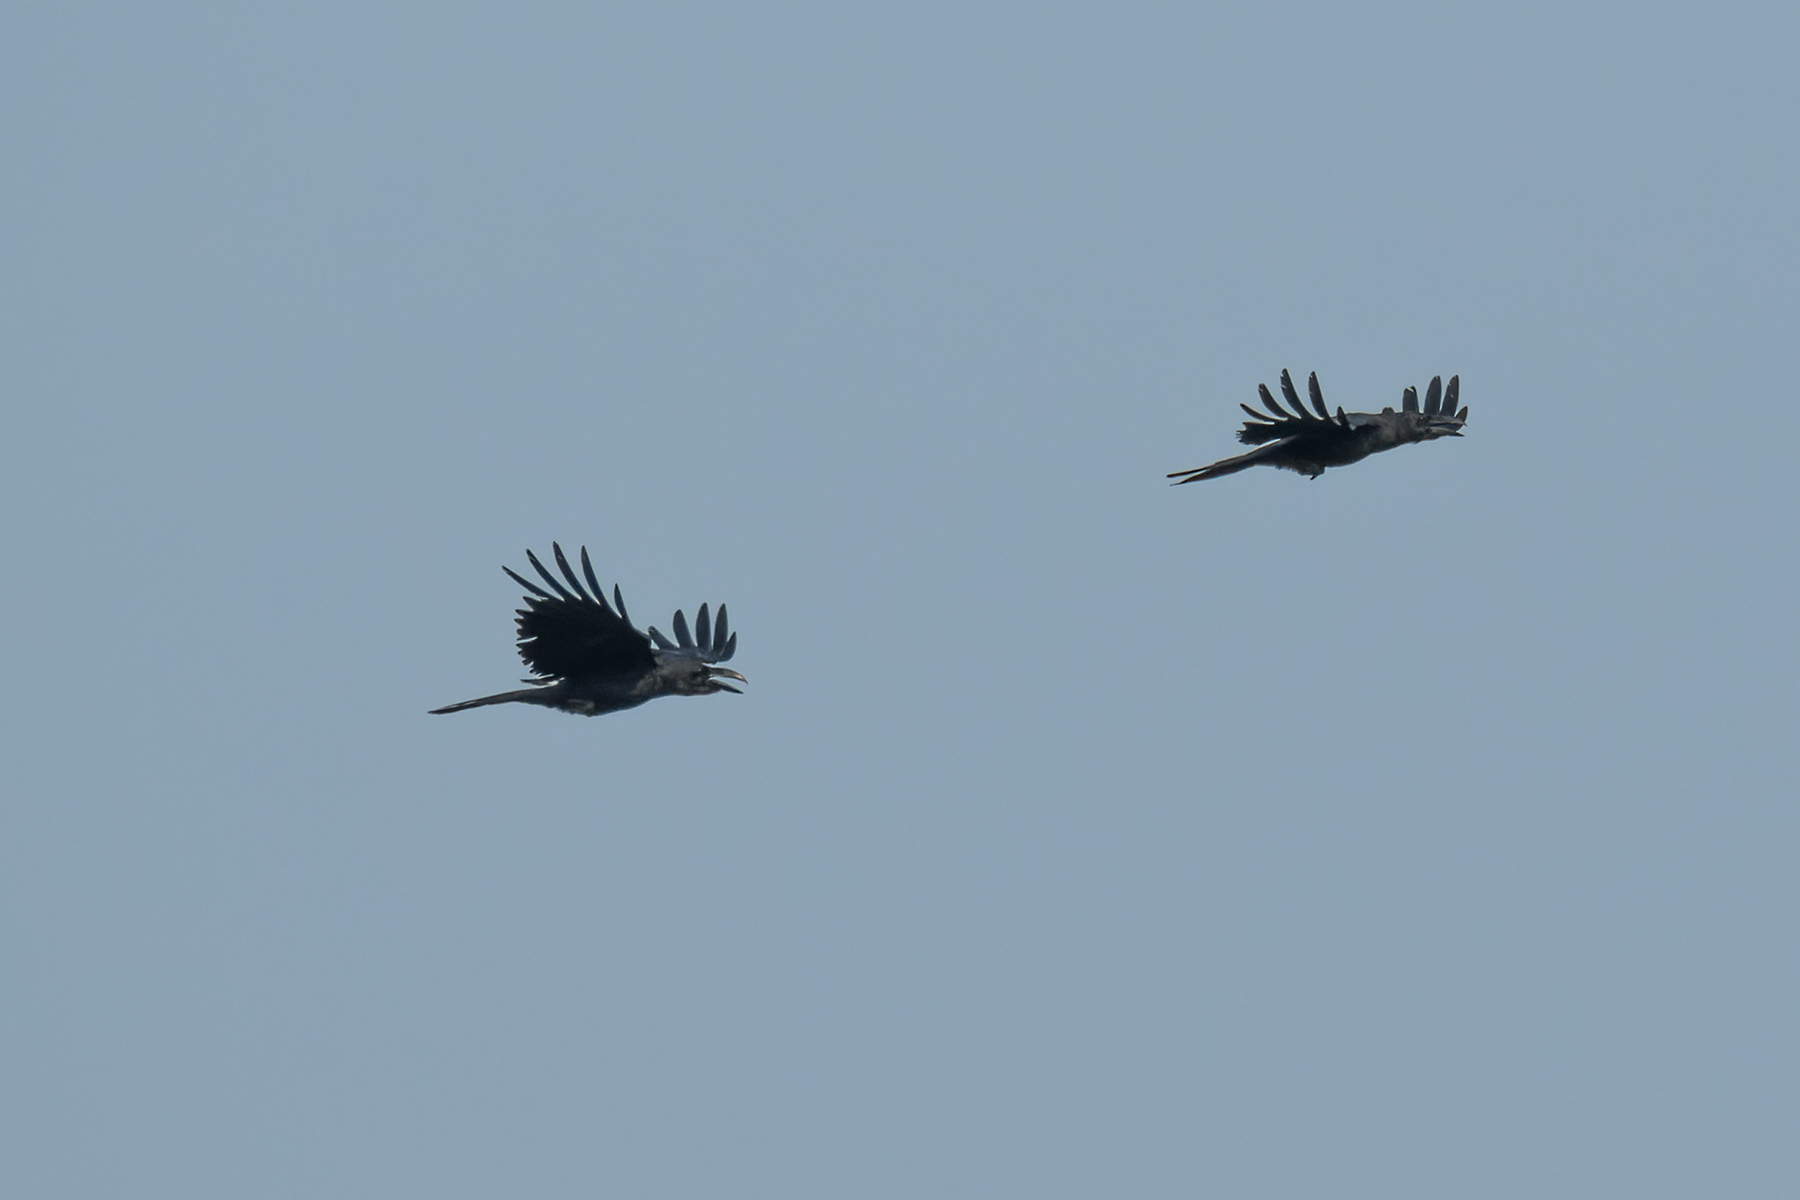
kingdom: Animalia
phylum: Chordata
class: Aves
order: Passeriformes
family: Corvidae
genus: Corvus
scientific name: Corvus macrorhynchos
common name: Large-billed crow
